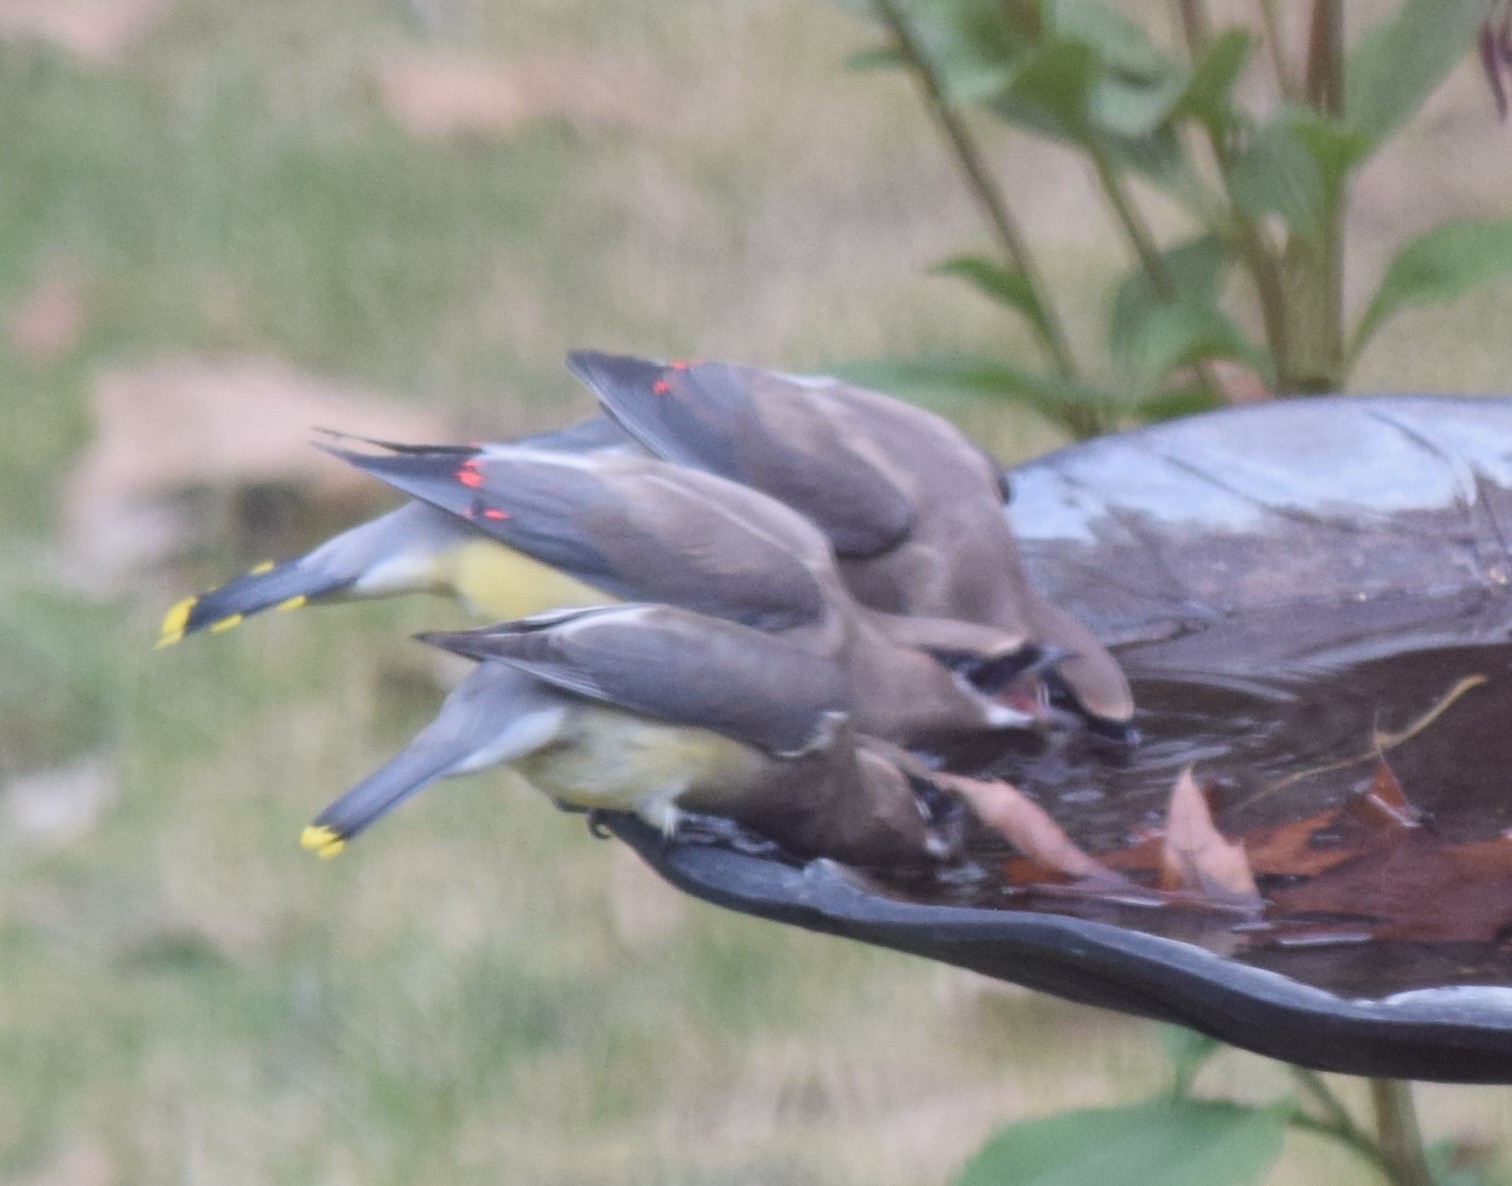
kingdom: Animalia
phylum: Chordata
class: Aves
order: Passeriformes
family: Bombycillidae
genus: Bombycilla
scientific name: Bombycilla cedrorum
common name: Cedar waxwing
